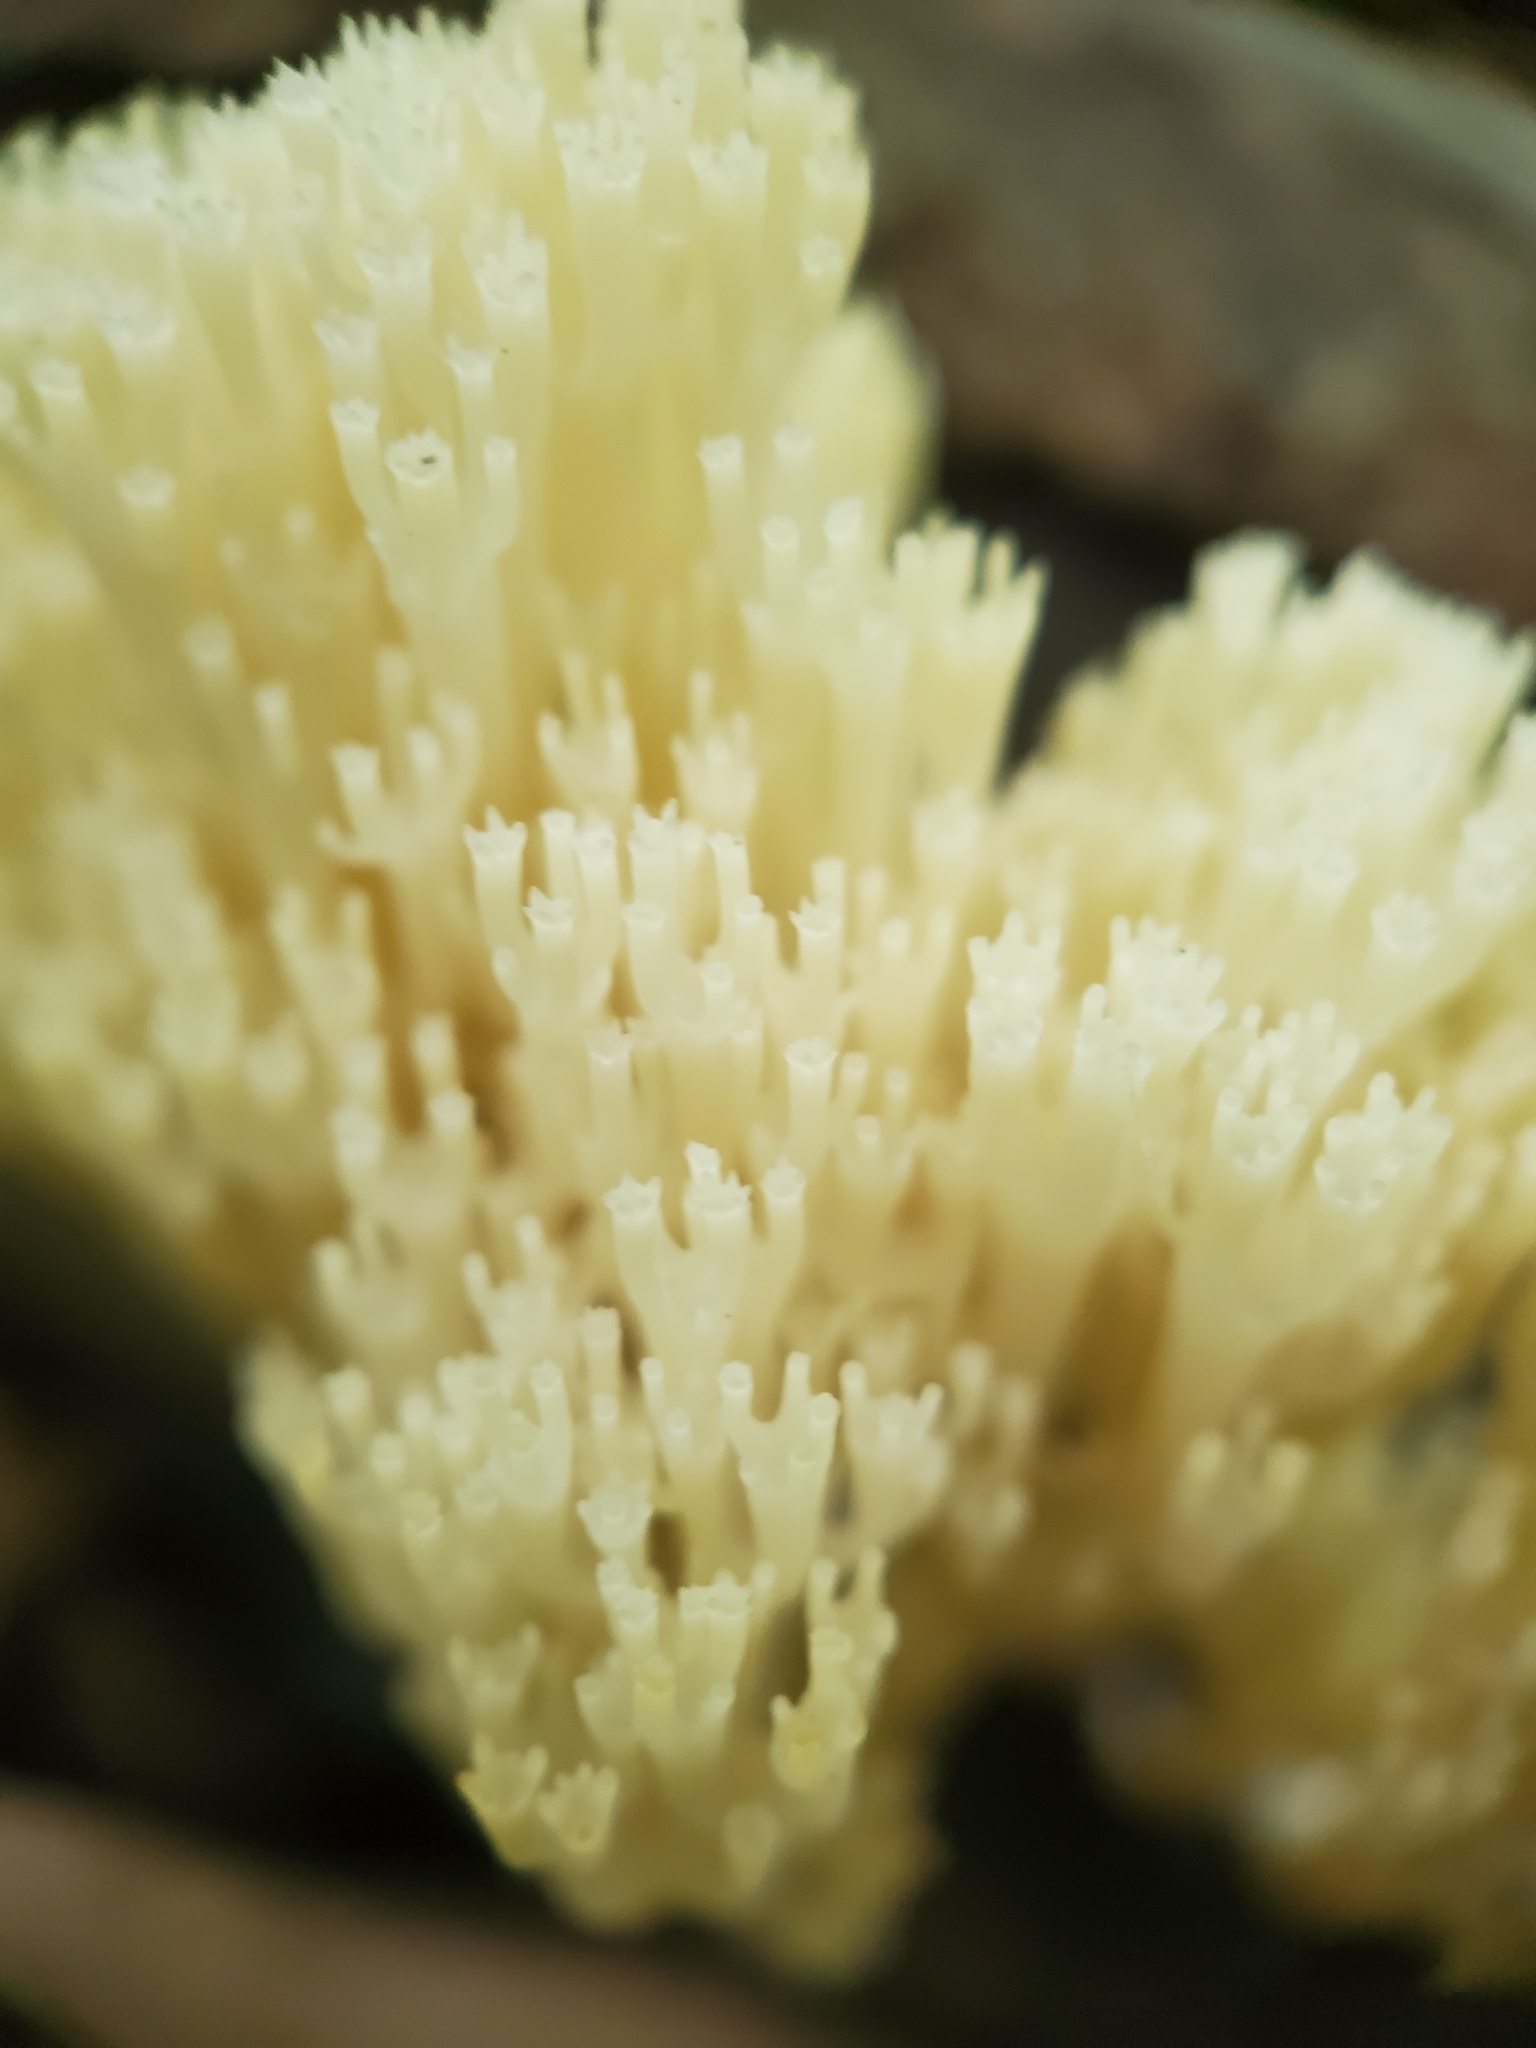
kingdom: Fungi
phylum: Basidiomycota
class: Agaricomycetes
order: Russulales
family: Auriscalpiaceae
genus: Artomyces
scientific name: Artomyces pyxidatus
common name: Crown-tipped coral fungus
